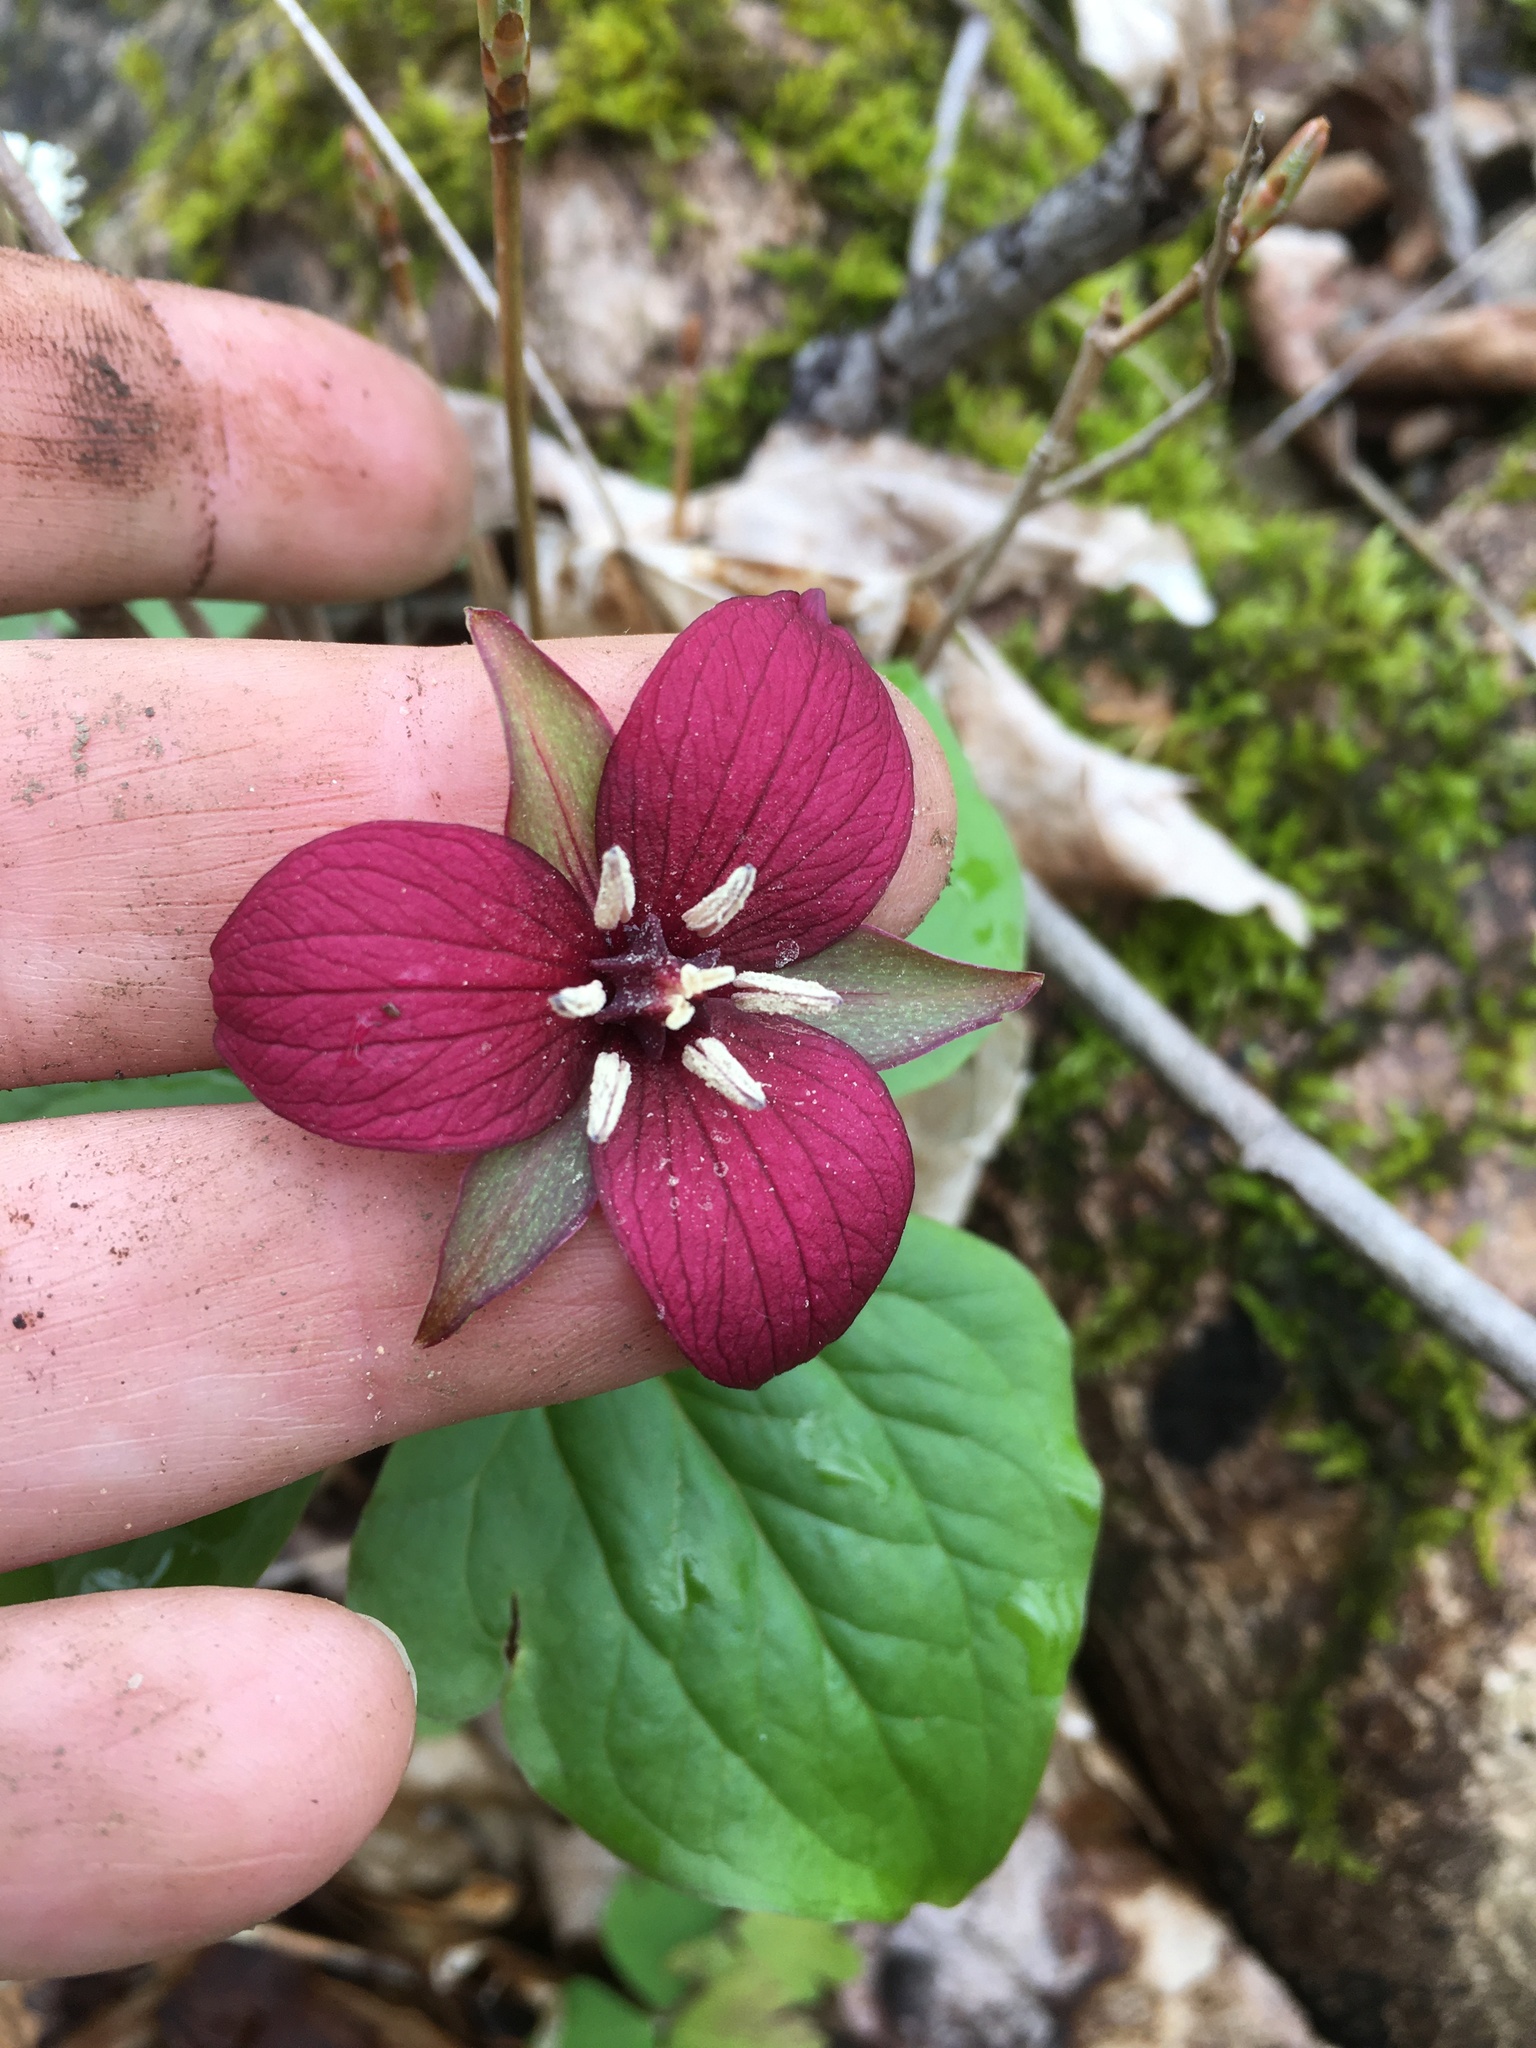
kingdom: Plantae
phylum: Tracheophyta
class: Liliopsida
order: Liliales
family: Melanthiaceae
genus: Trillium
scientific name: Trillium erectum
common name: Purple trillium
